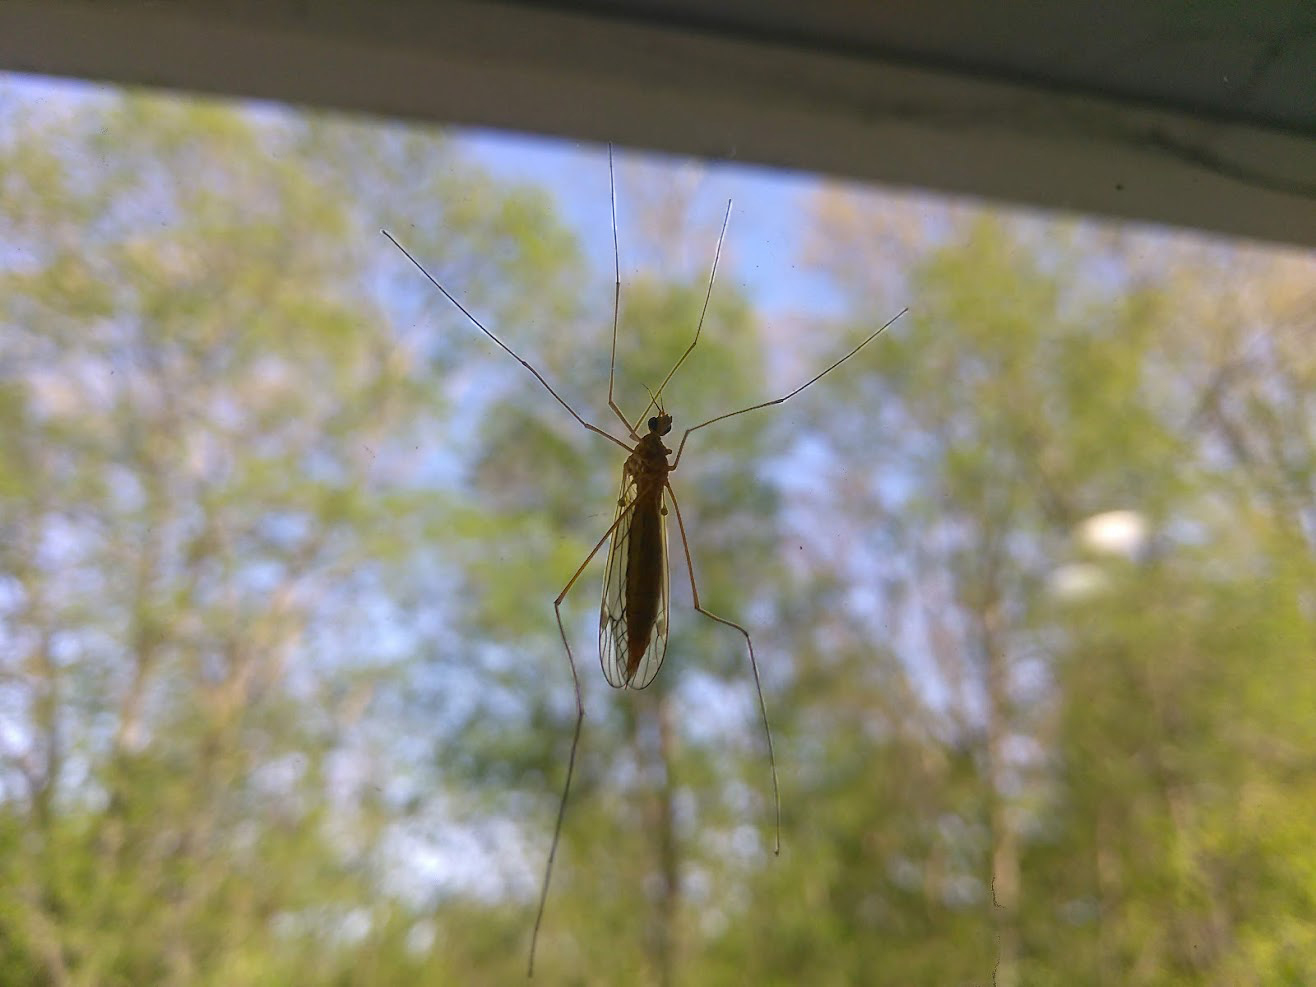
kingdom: Animalia
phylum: Arthropoda
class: Insecta
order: Diptera
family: Tipulidae
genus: Nephrotoma
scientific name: Nephrotoma
